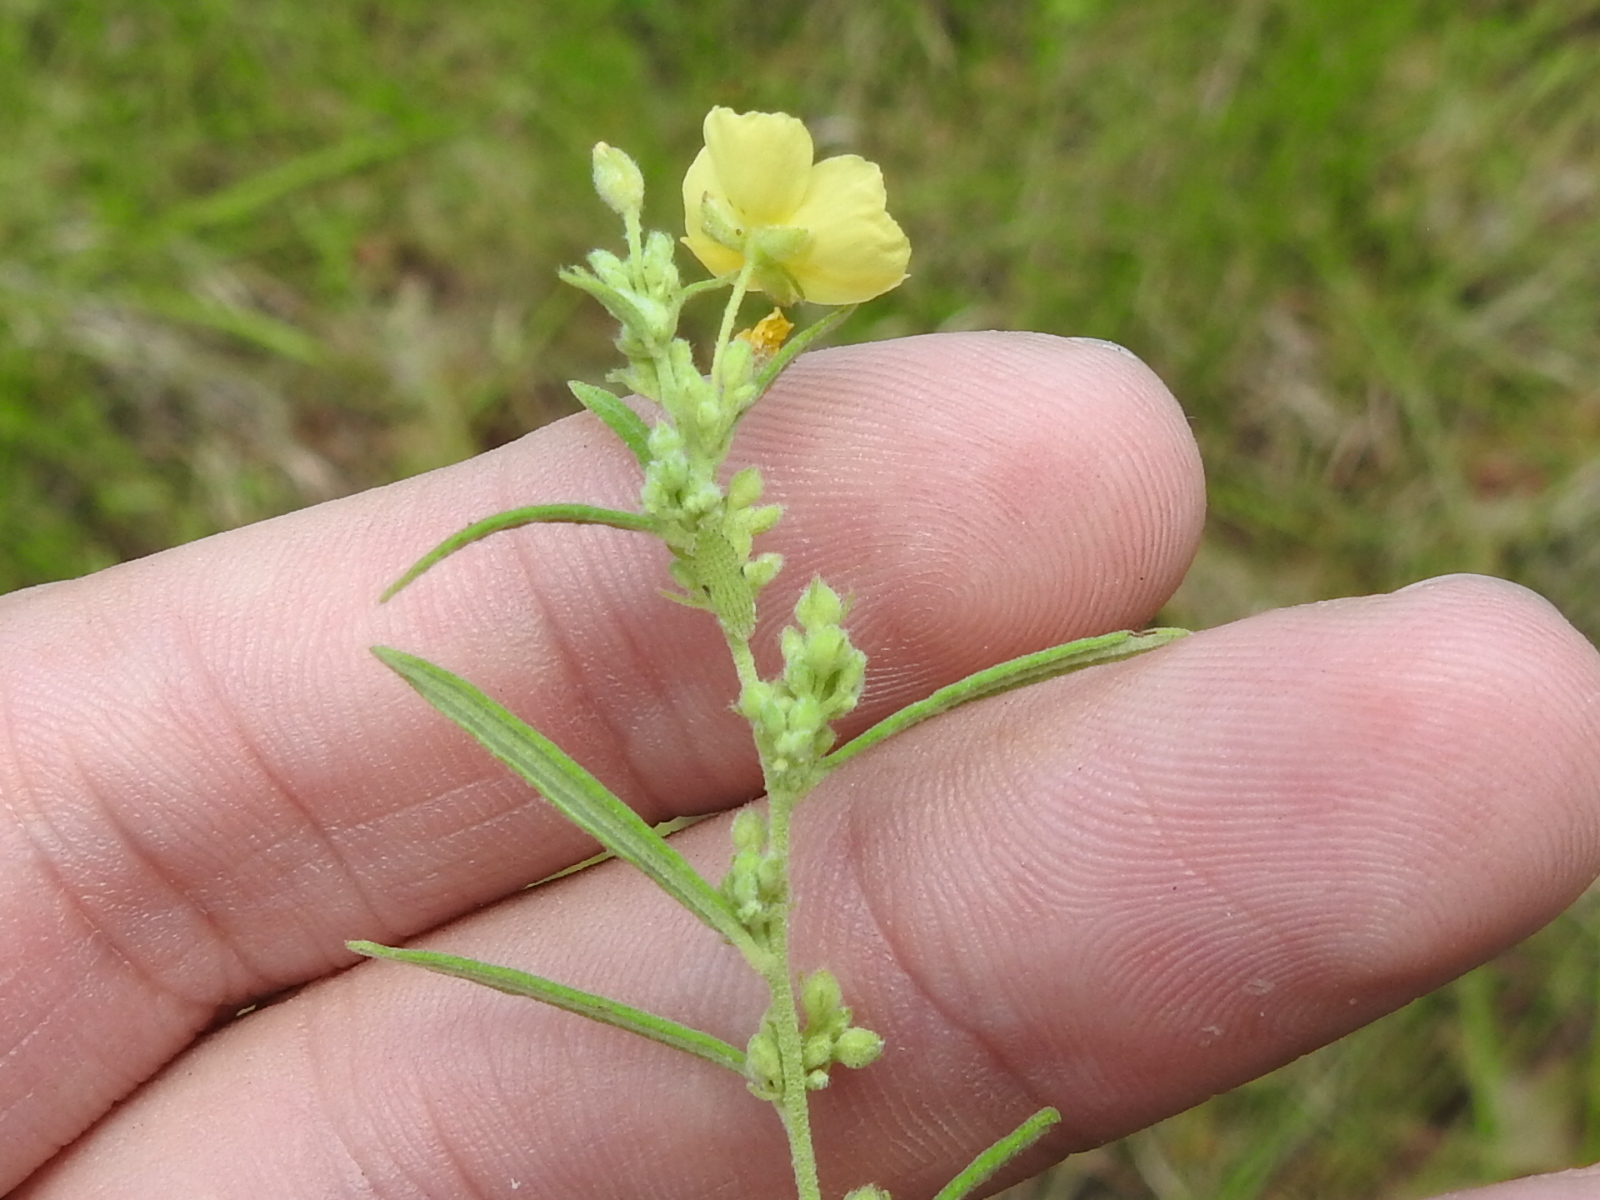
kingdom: Plantae
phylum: Tracheophyta
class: Magnoliopsida
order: Malvales
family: Cistaceae
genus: Crocanthemum
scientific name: Crocanthemum rosmarinifolium
